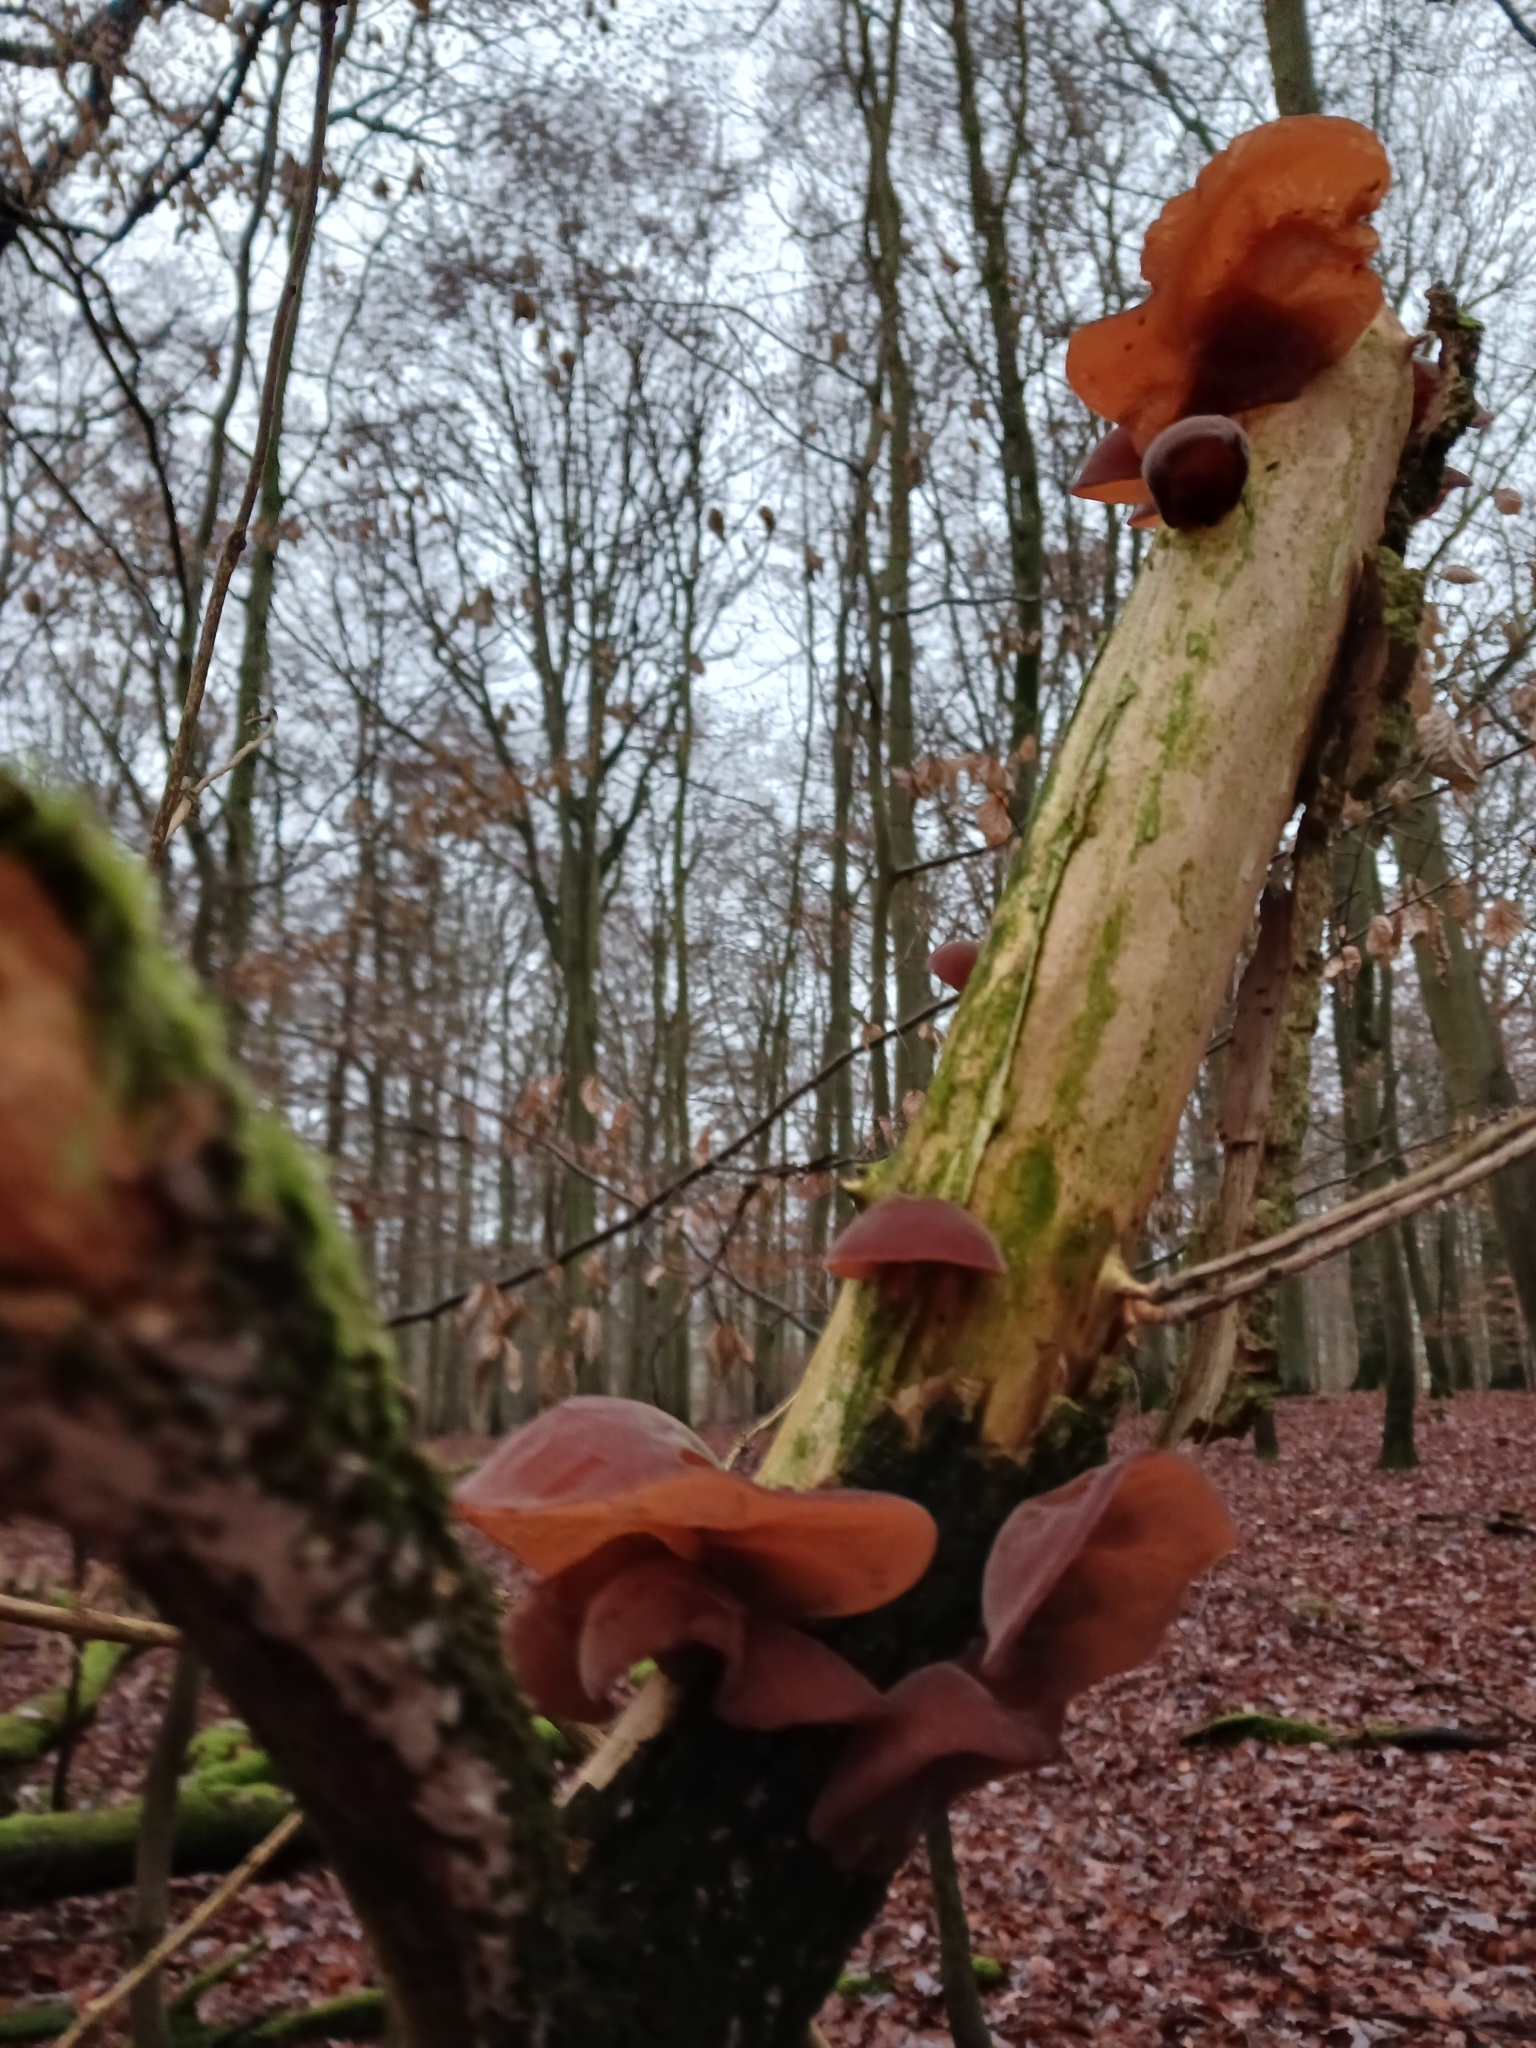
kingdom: Fungi
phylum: Basidiomycota
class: Agaricomycetes
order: Auriculariales
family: Auriculariaceae
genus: Auricularia
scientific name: Auricularia auricula-judae
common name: Jelly ear
